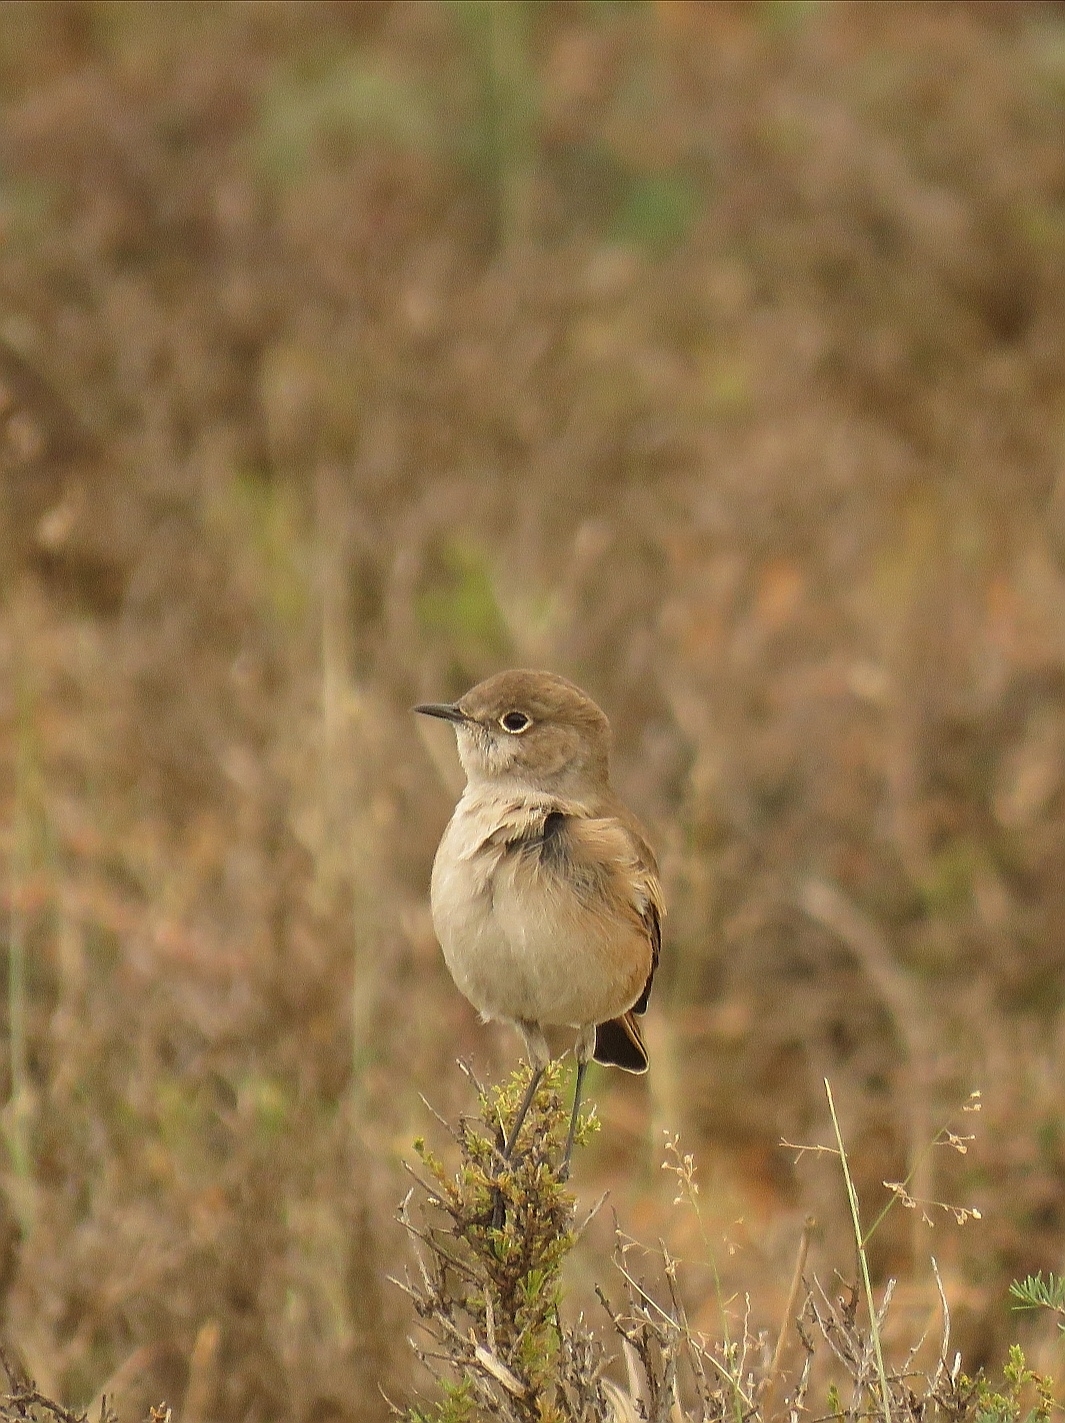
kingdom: Animalia
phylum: Chordata
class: Aves
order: Passeriformes
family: Muscicapidae
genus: Emarginata
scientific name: Emarginata sinuata
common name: Sickle-winged chat
